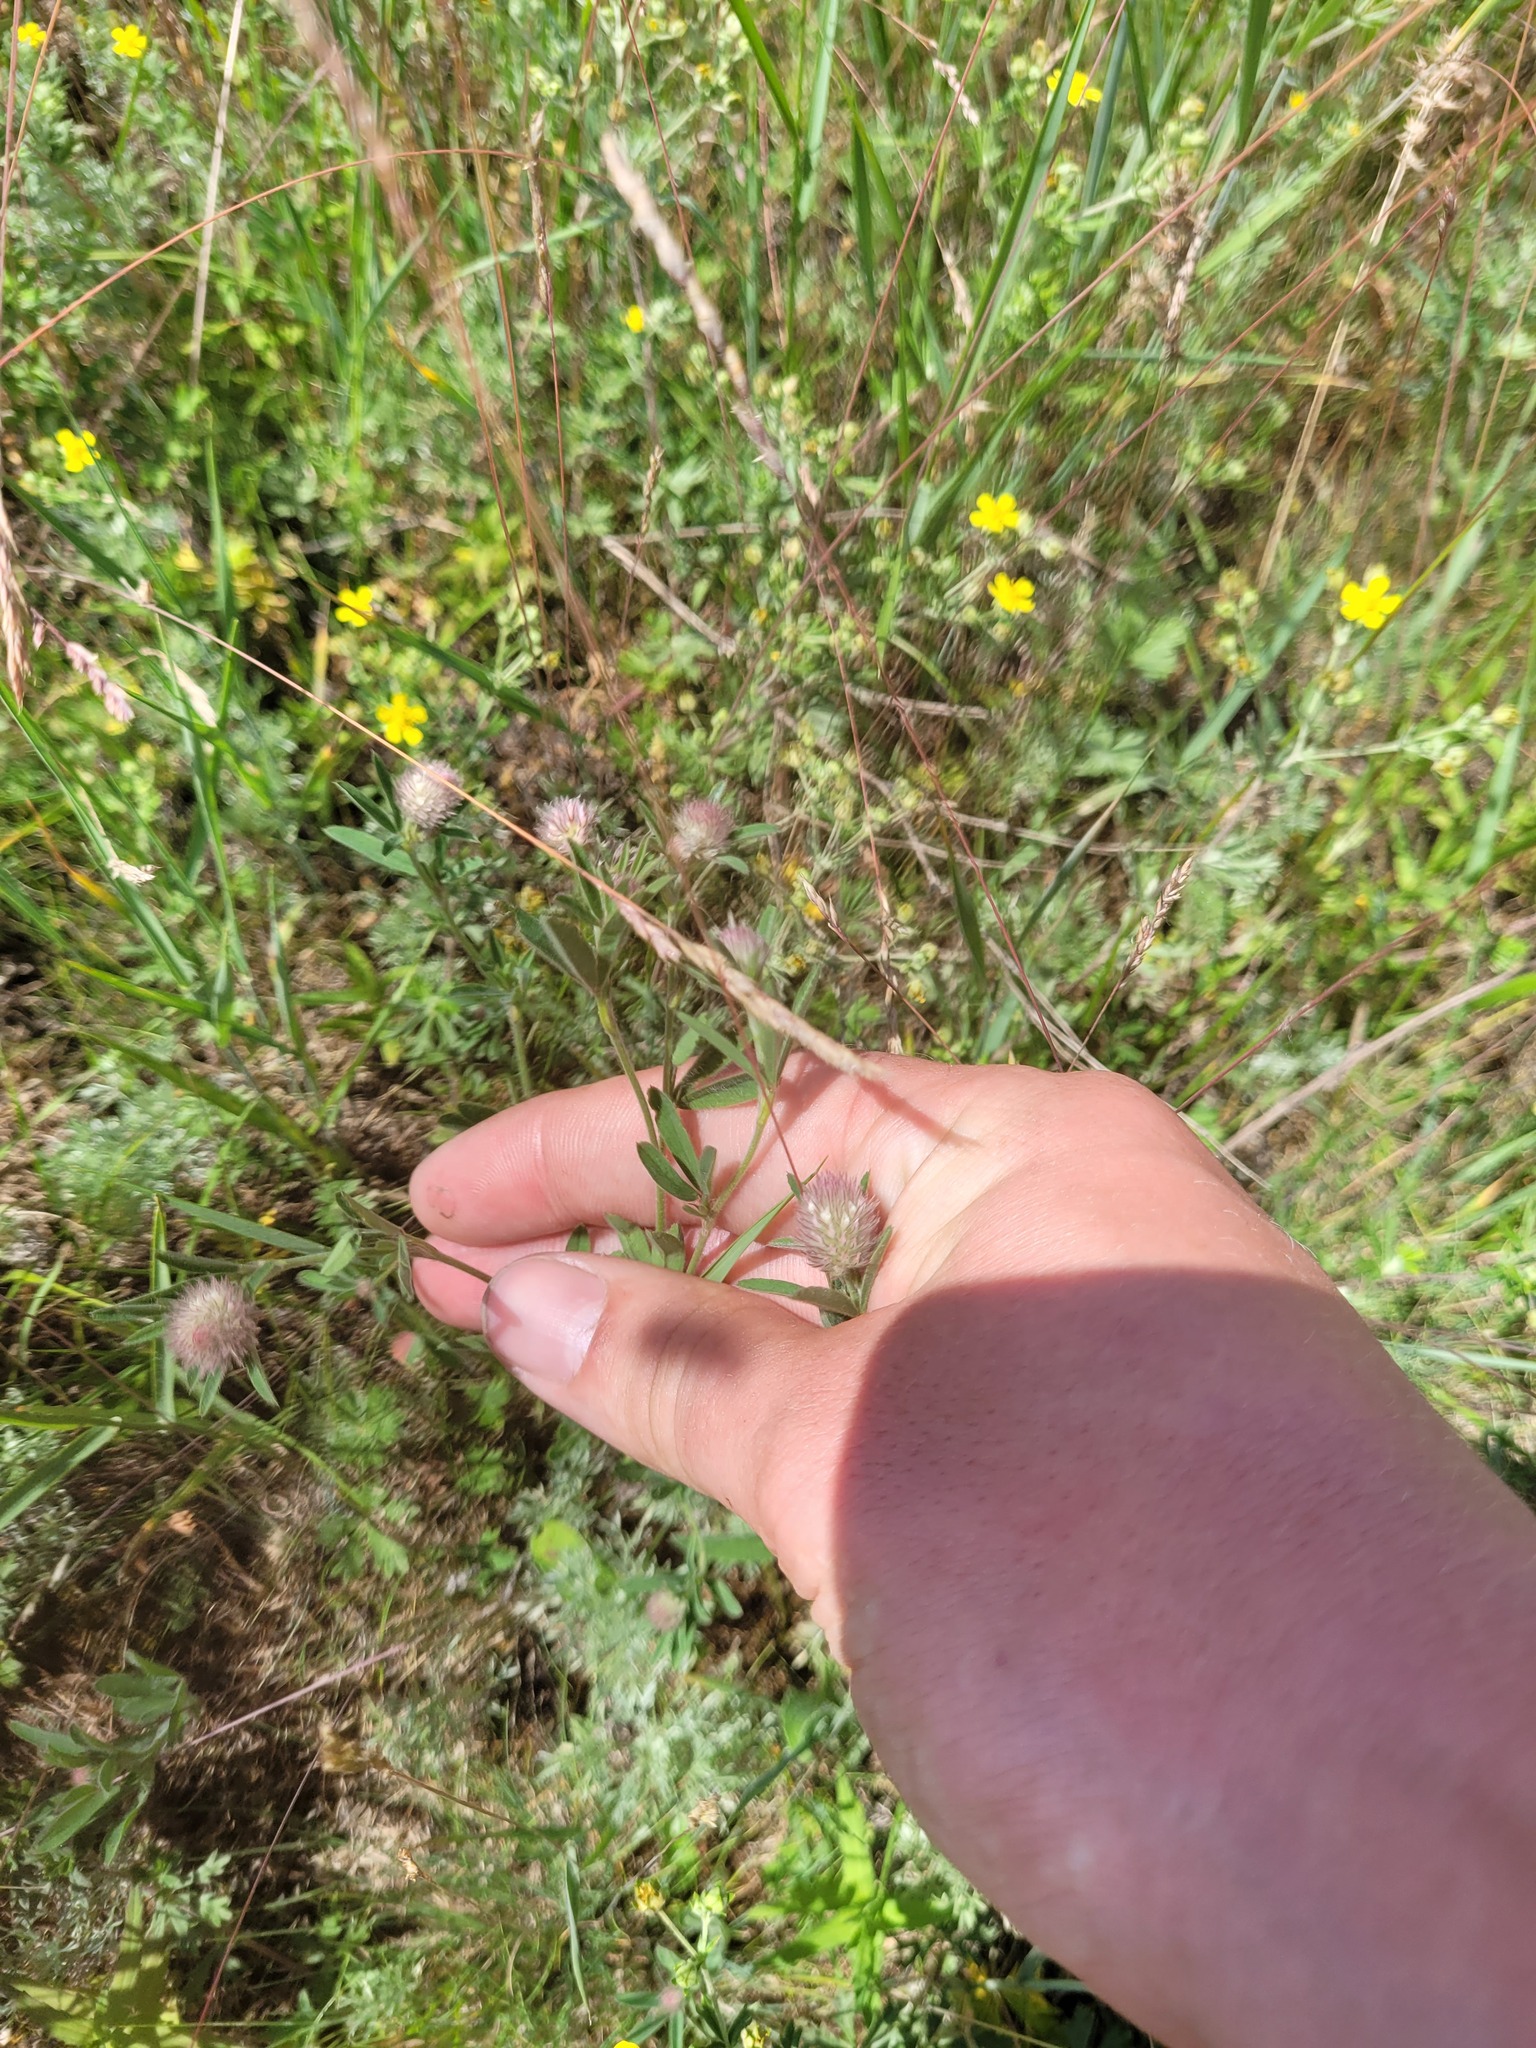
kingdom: Plantae
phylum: Tracheophyta
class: Magnoliopsida
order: Fabales
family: Fabaceae
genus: Trifolium
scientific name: Trifolium arvense
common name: Hare's-foot clover
